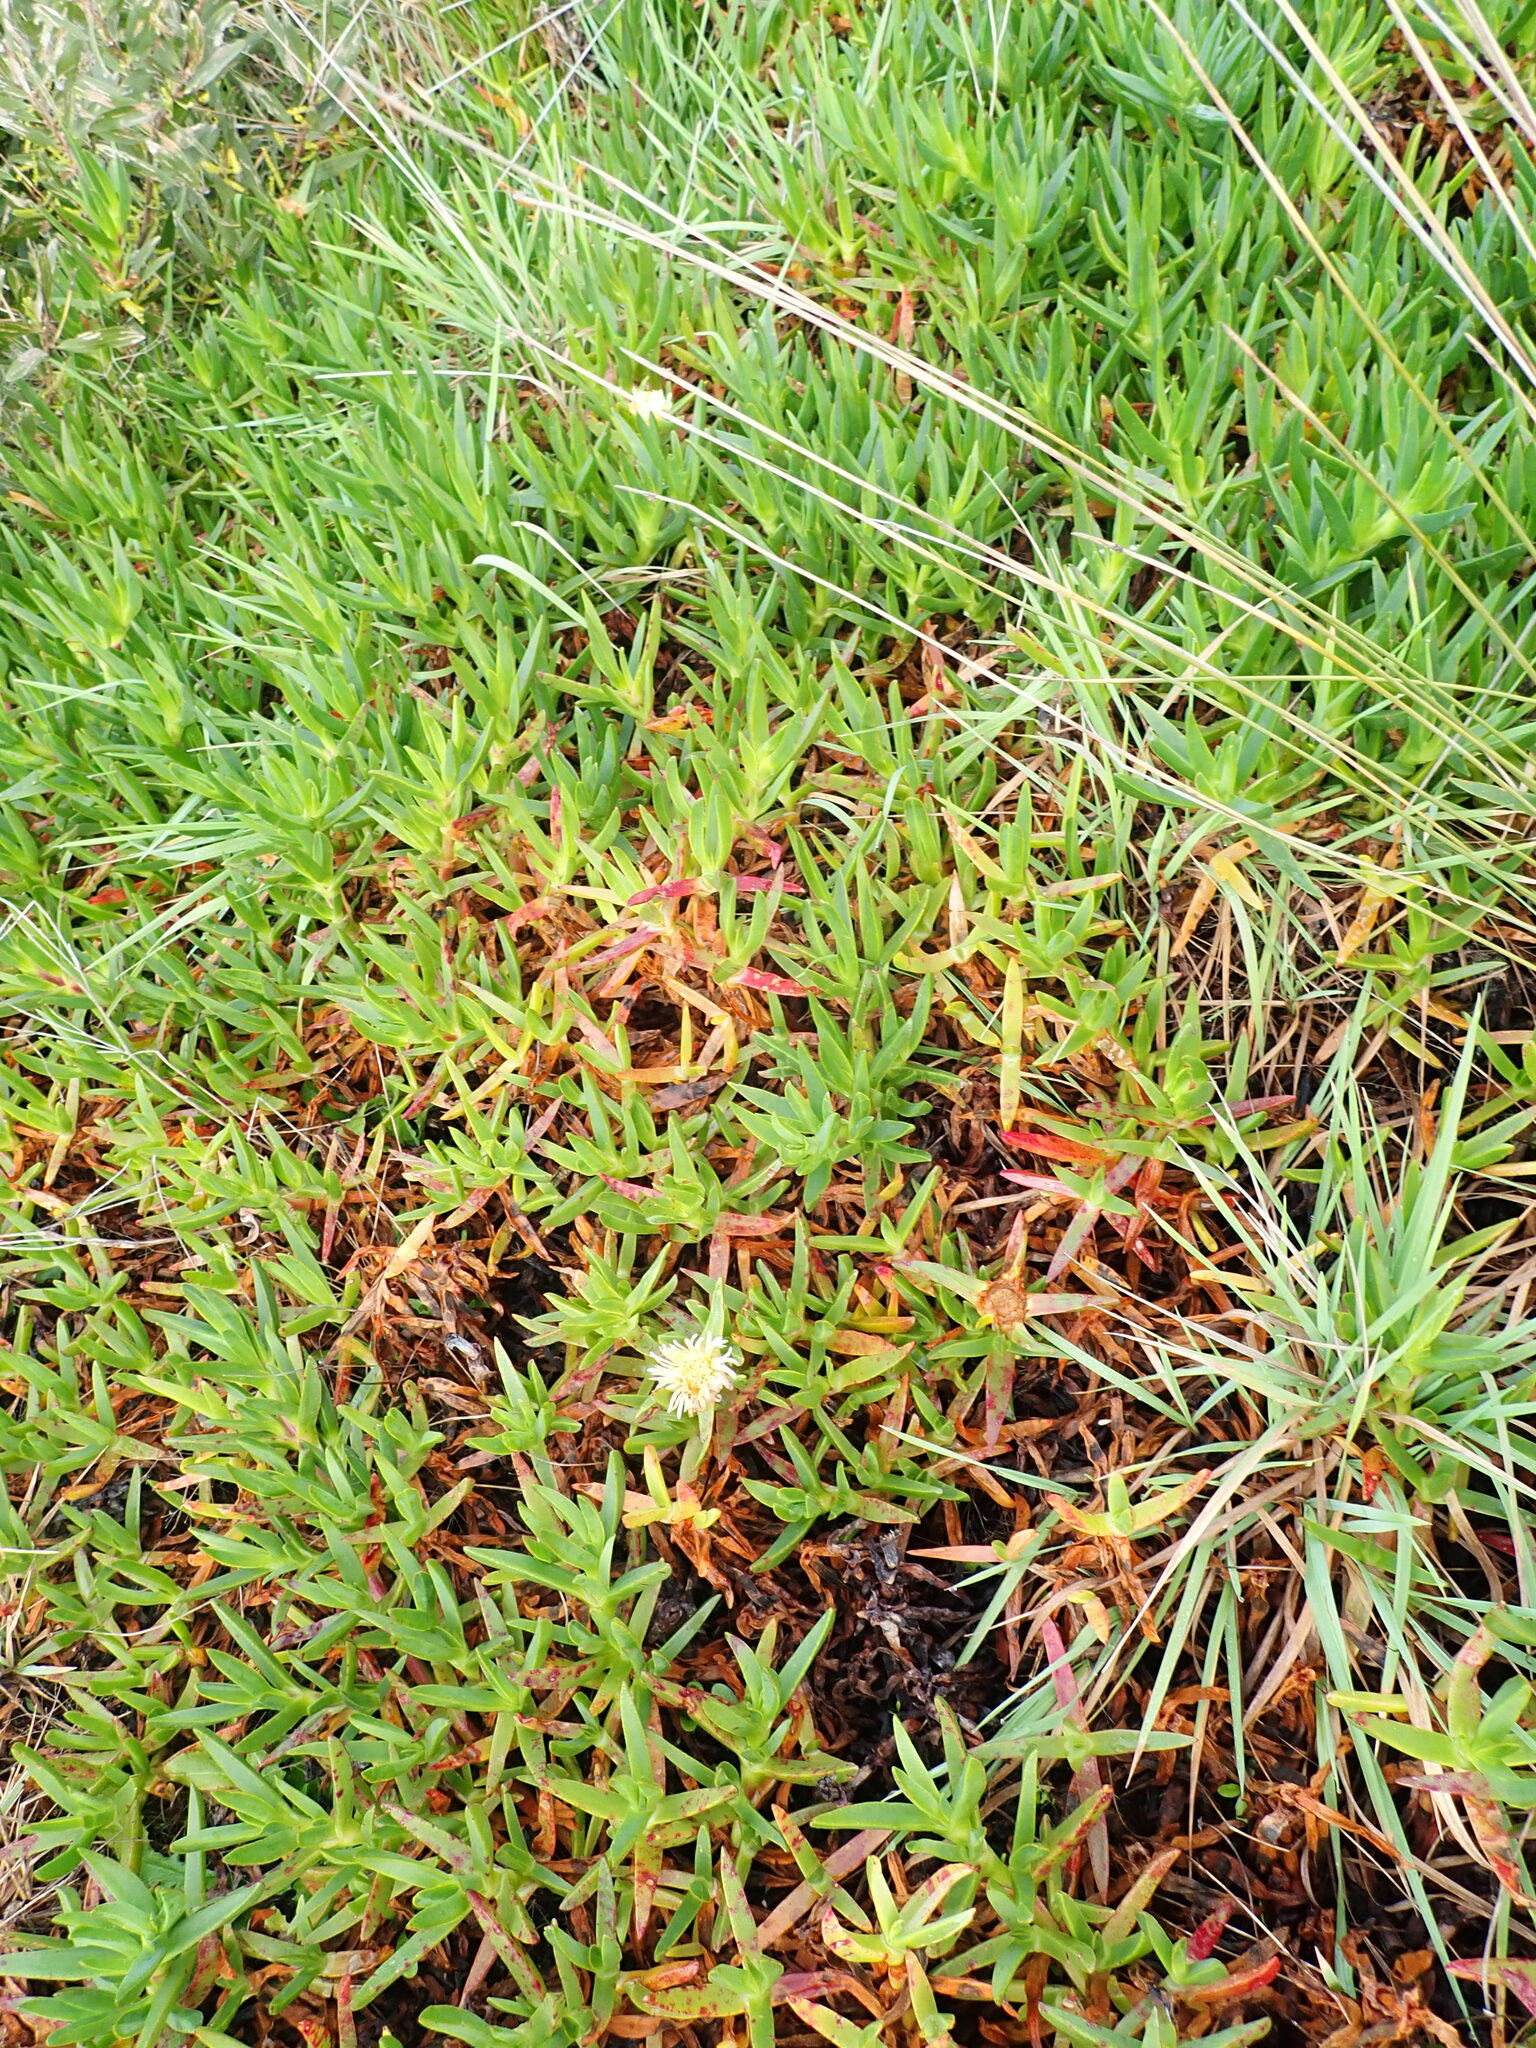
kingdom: Plantae
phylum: Tracheophyta
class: Magnoliopsida
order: Caryophyllales
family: Aizoaceae
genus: Carpobrotus
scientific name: Carpobrotus edulis
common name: Hottentot-fig
